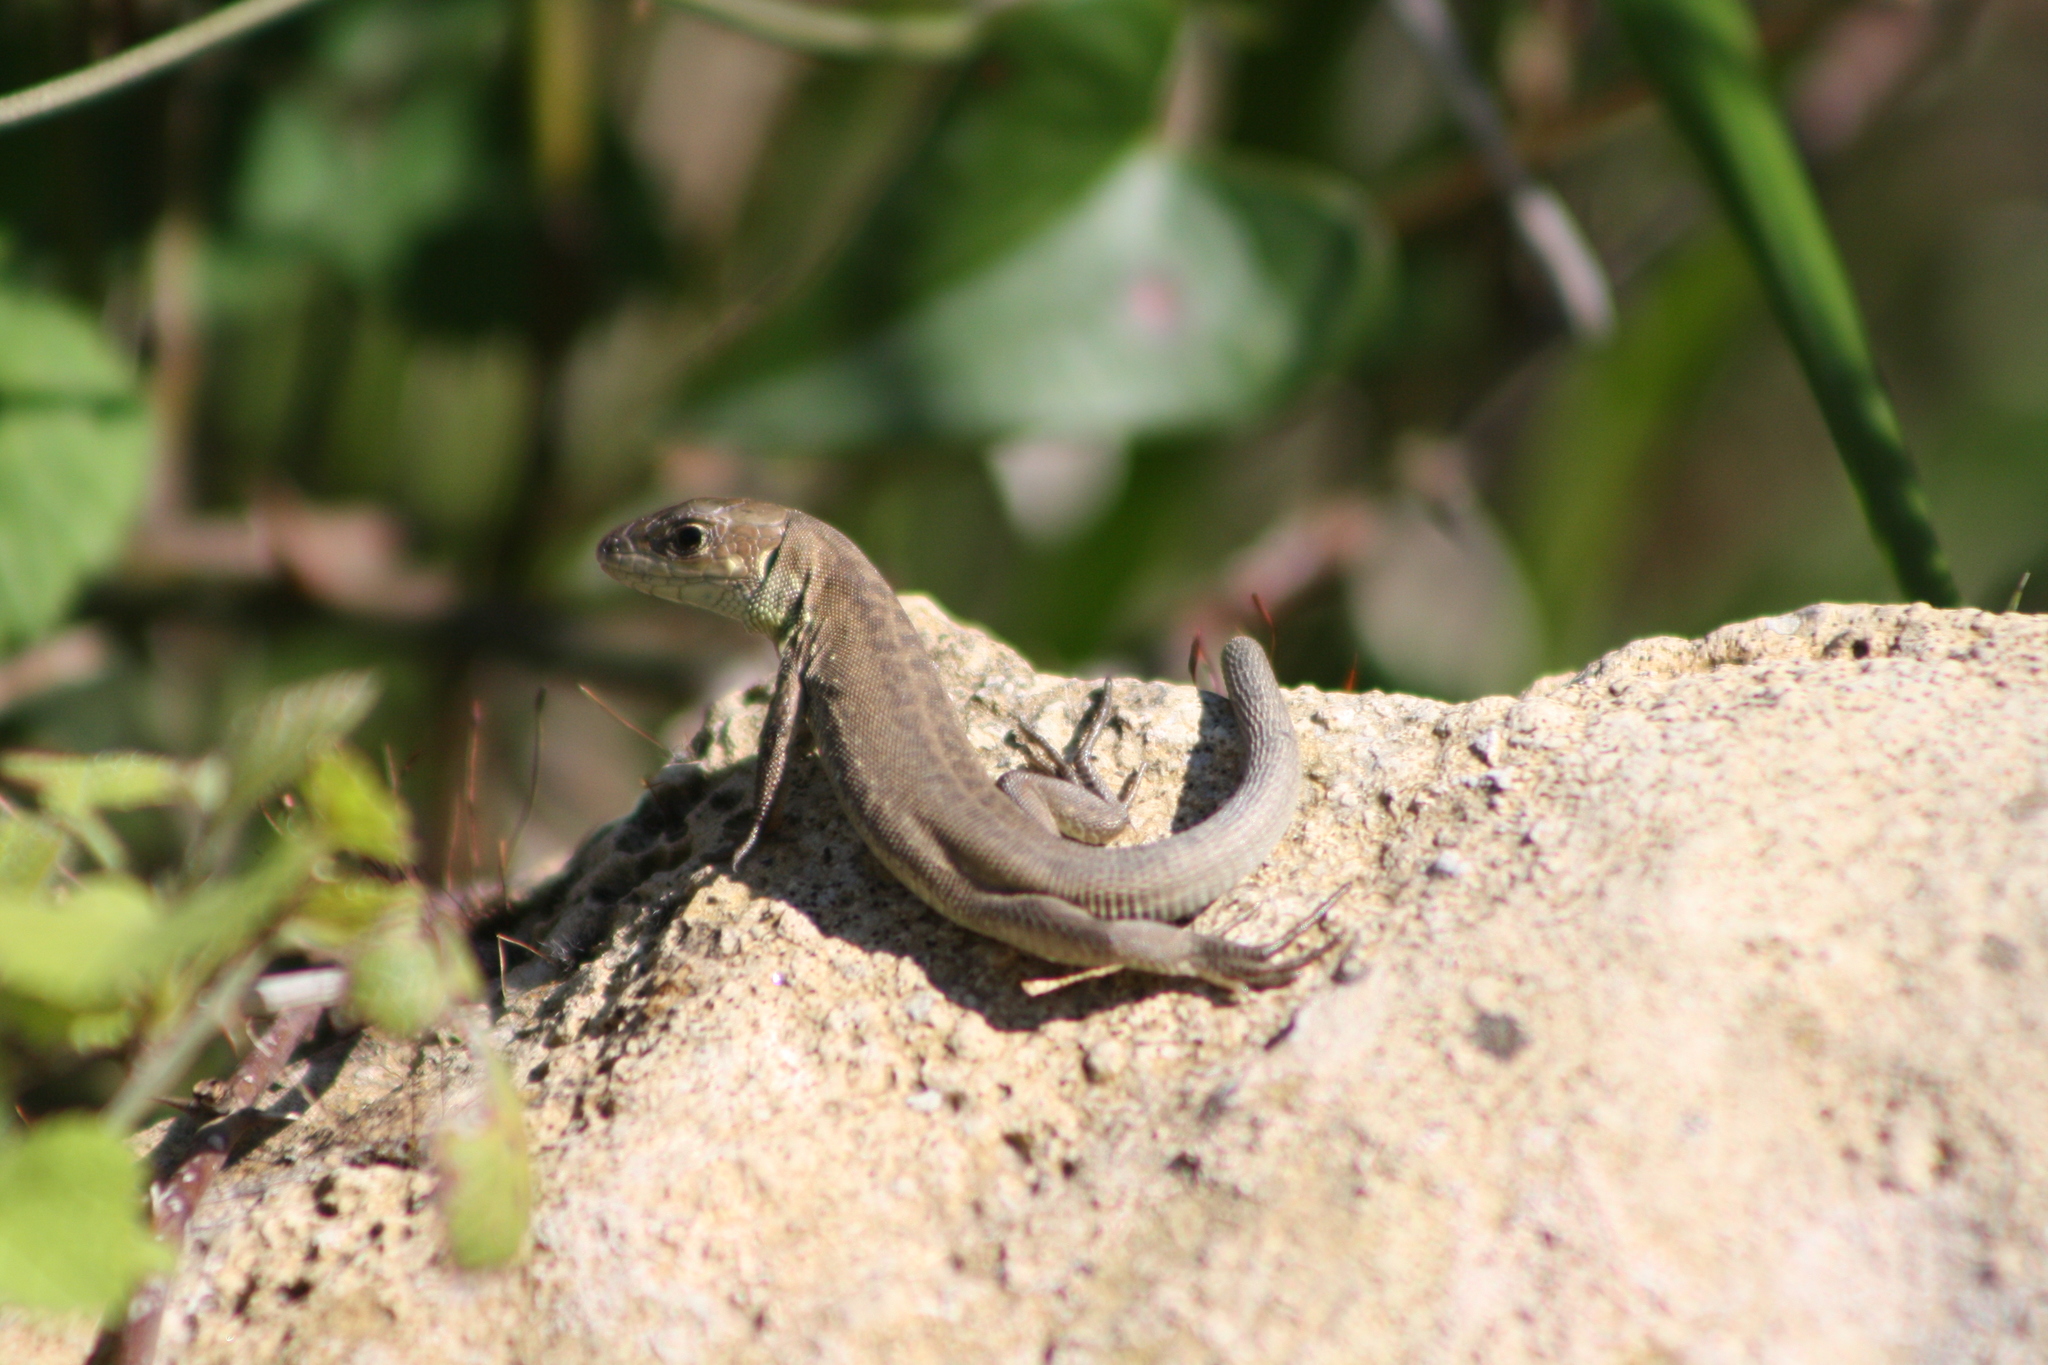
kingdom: Animalia
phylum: Chordata
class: Squamata
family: Lacertidae
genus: Lacerta
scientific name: Lacerta trilineata
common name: Balkan green lizard
